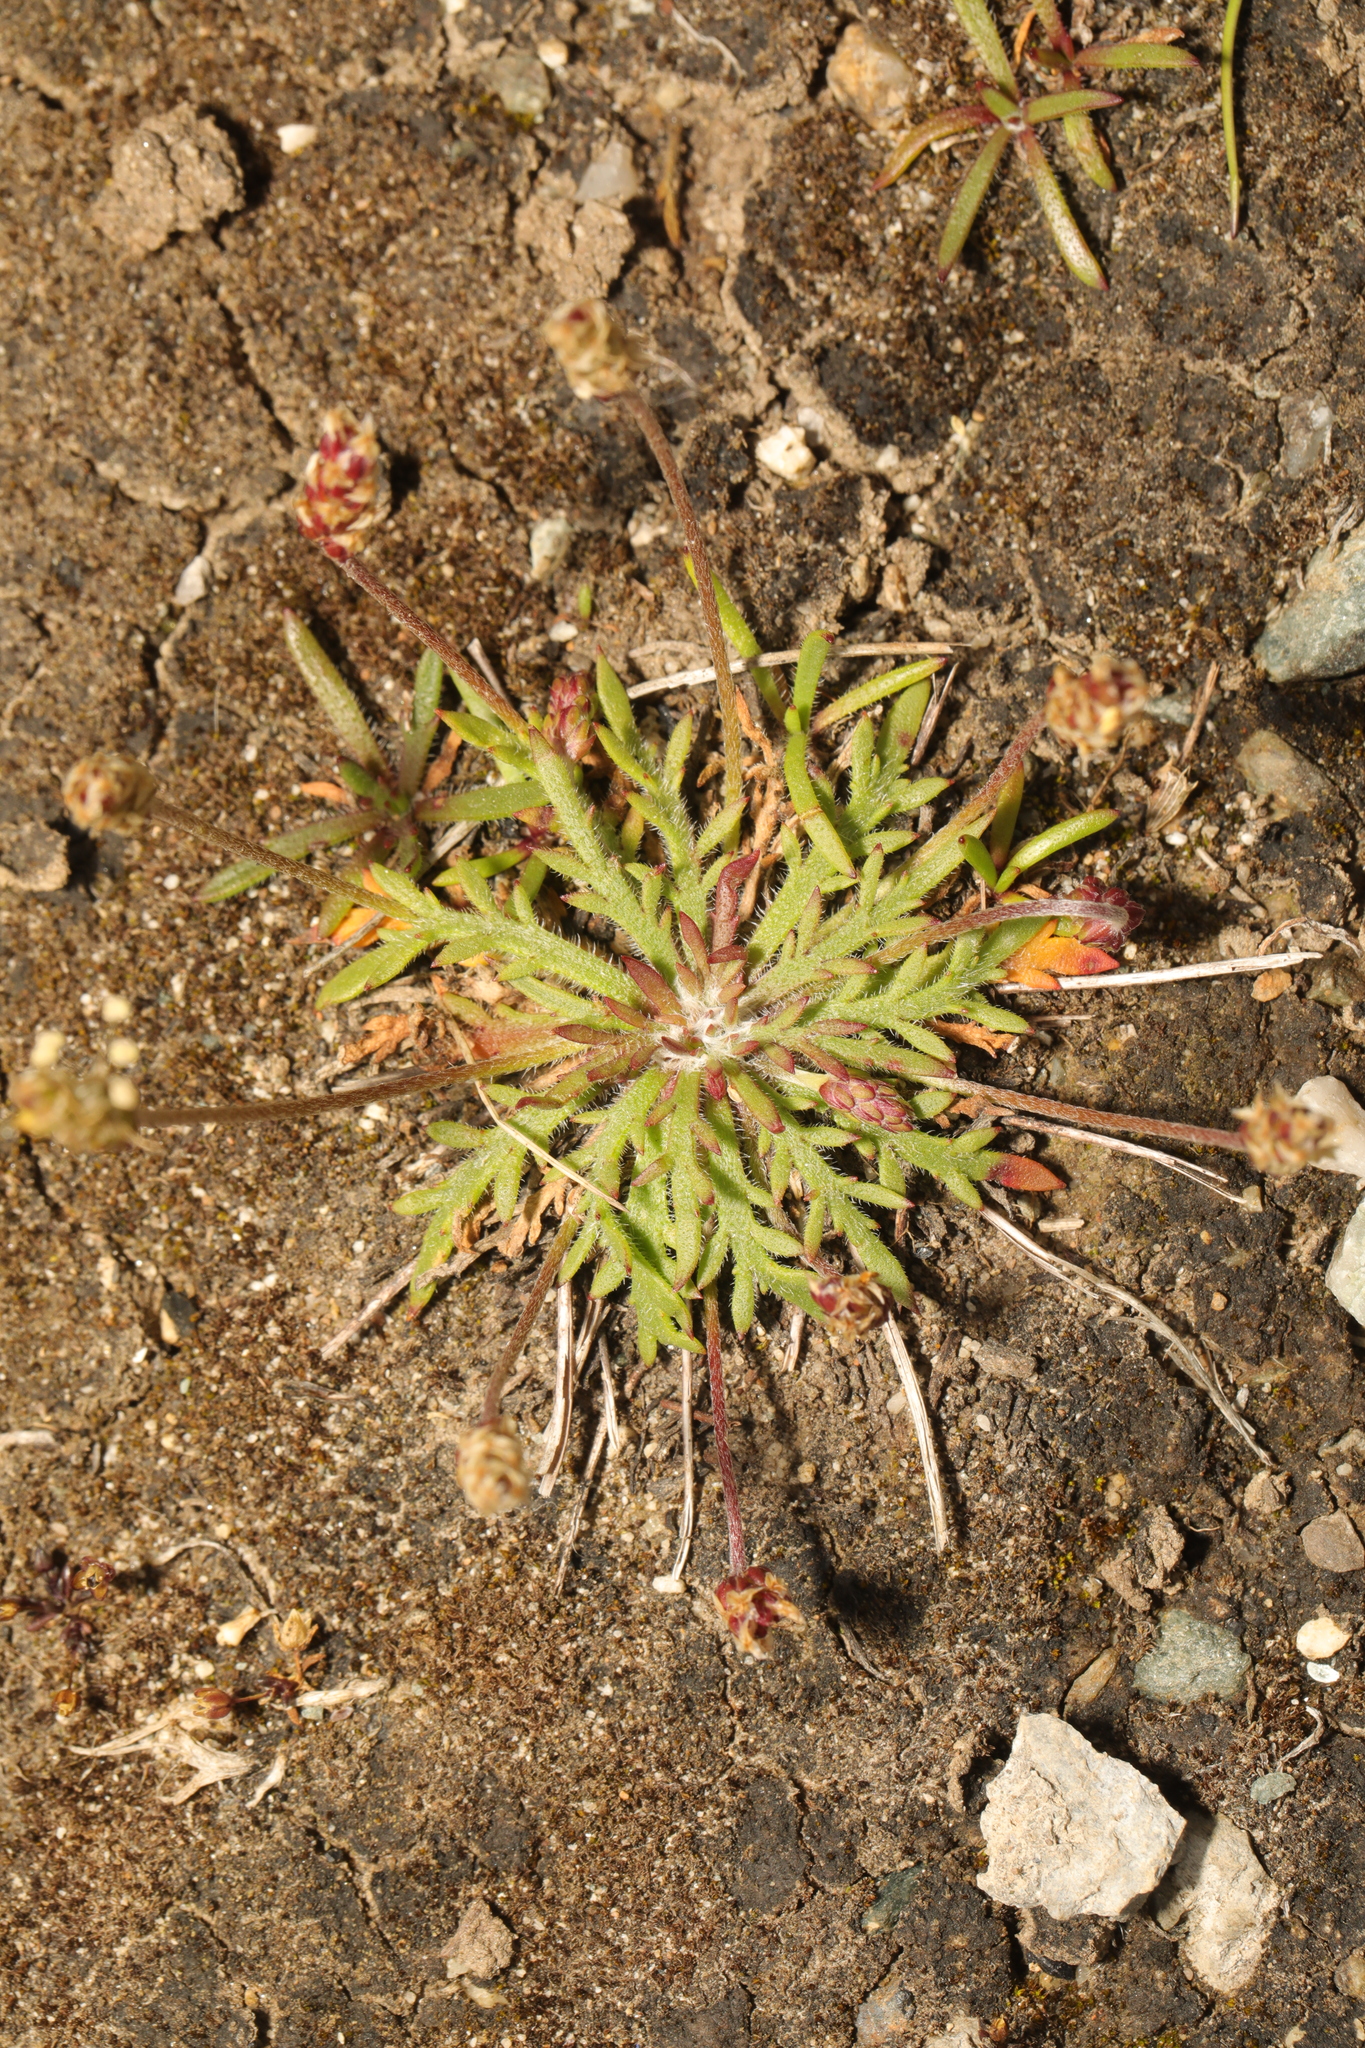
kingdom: Plantae
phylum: Tracheophyta
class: Magnoliopsida
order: Lamiales
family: Plantaginaceae
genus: Plantago
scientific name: Plantago coronopus
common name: Buck's-horn plantain
